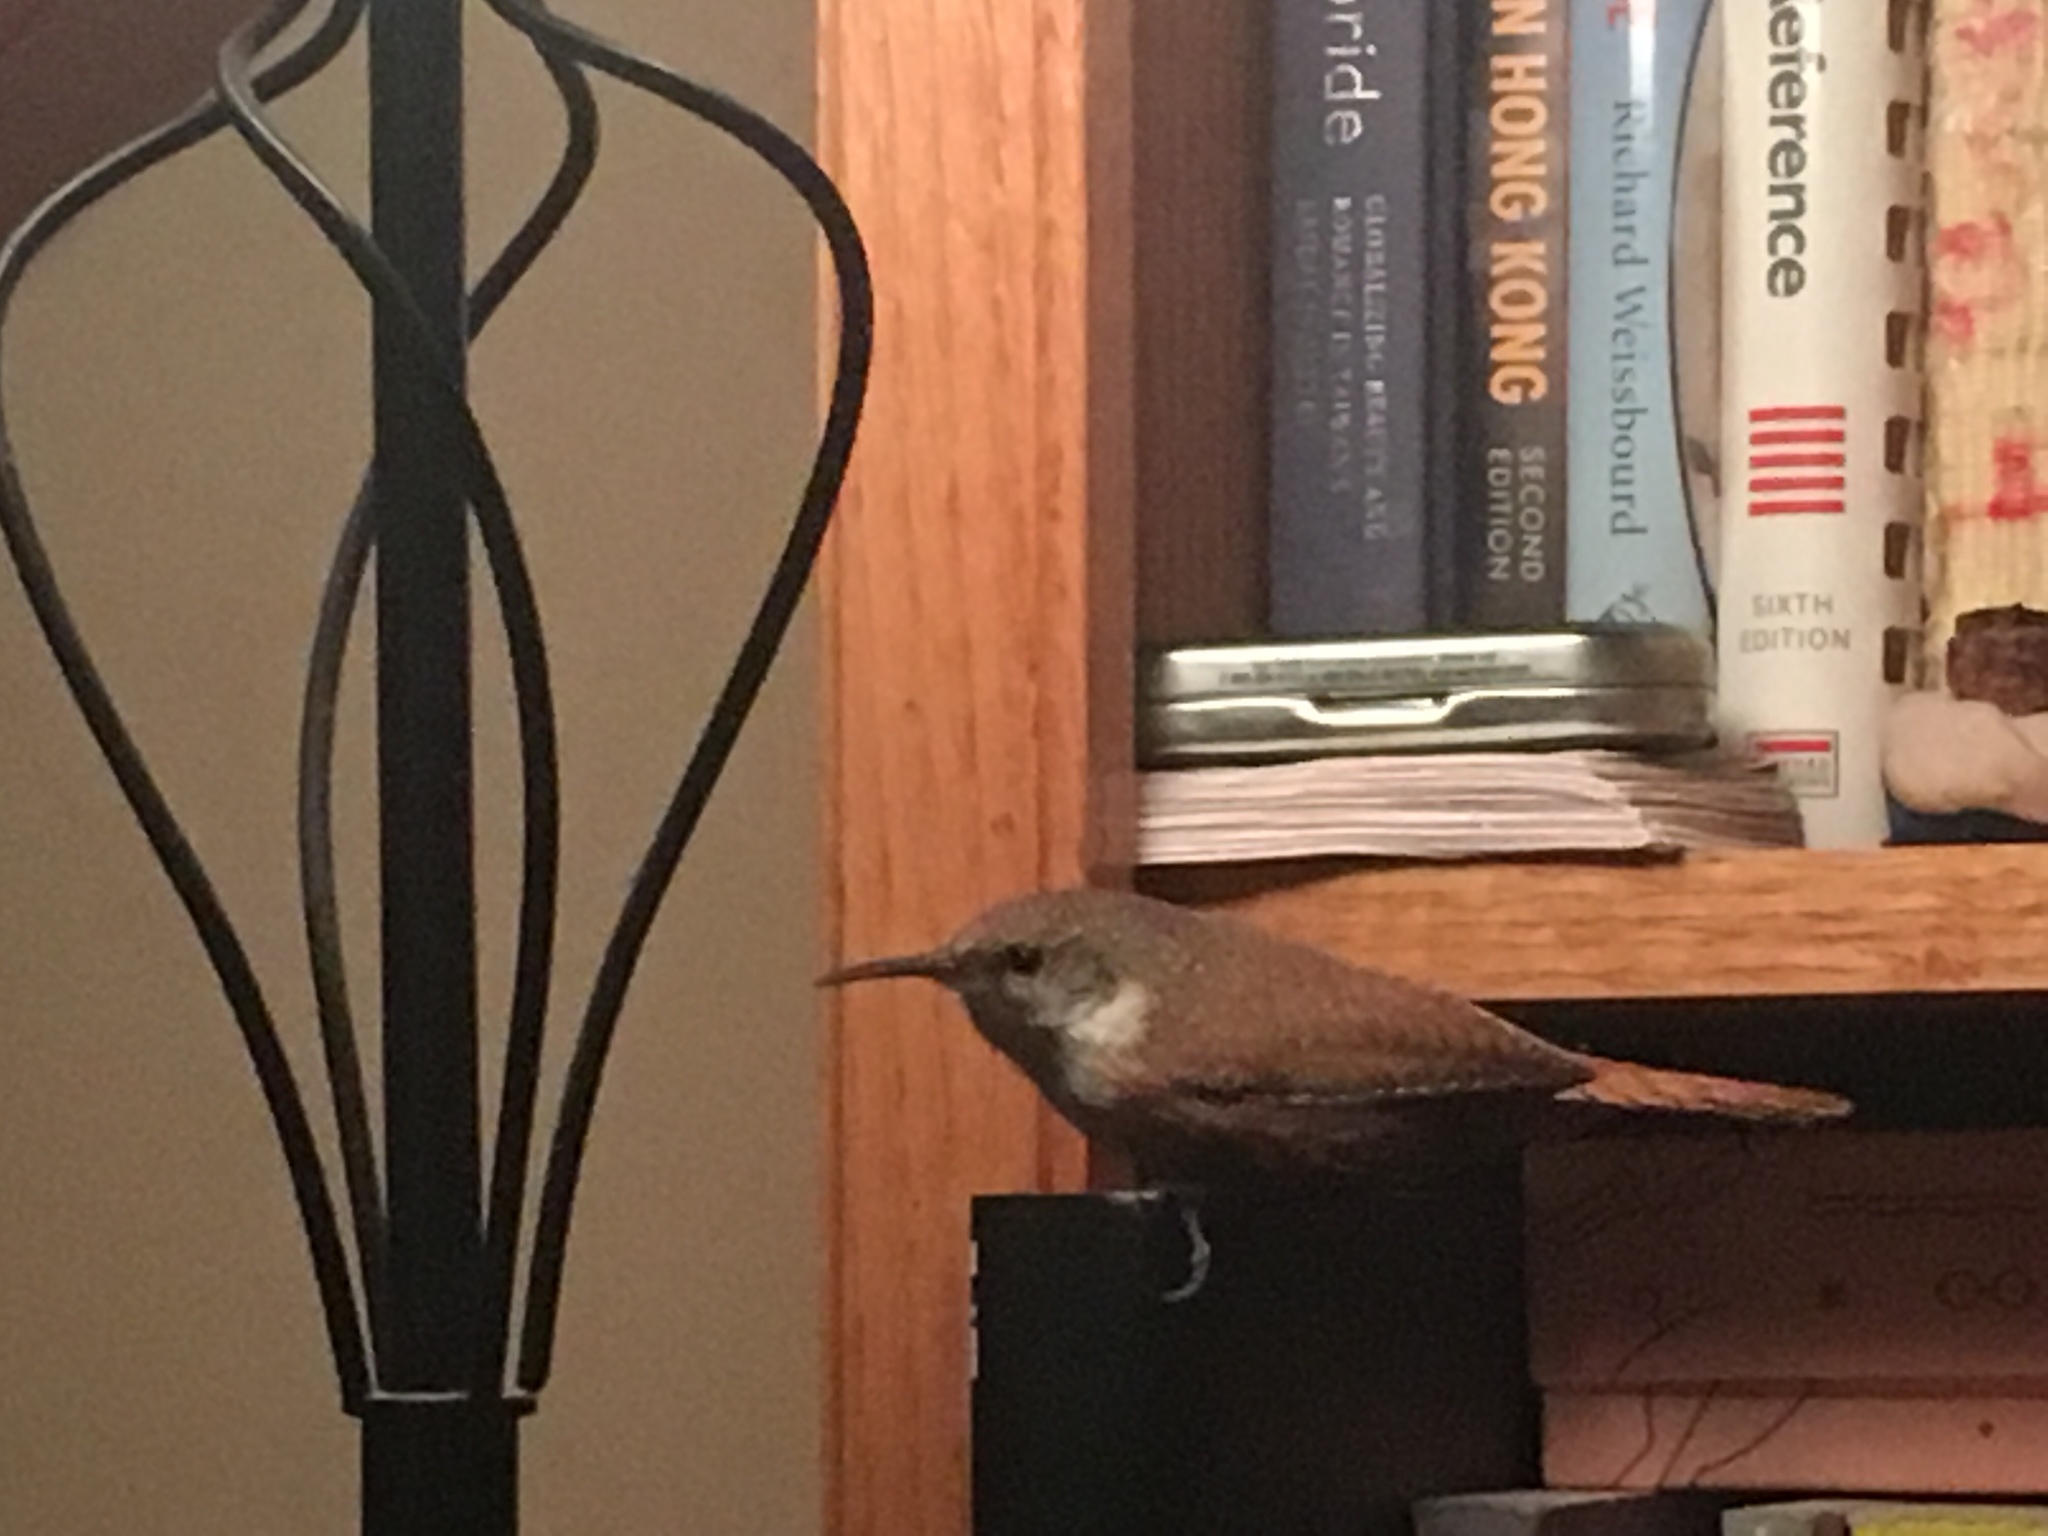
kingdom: Animalia
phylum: Chordata
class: Aves
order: Passeriformes
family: Troglodytidae
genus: Catherpes
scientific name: Catherpes mexicanus
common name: Canyon wren
